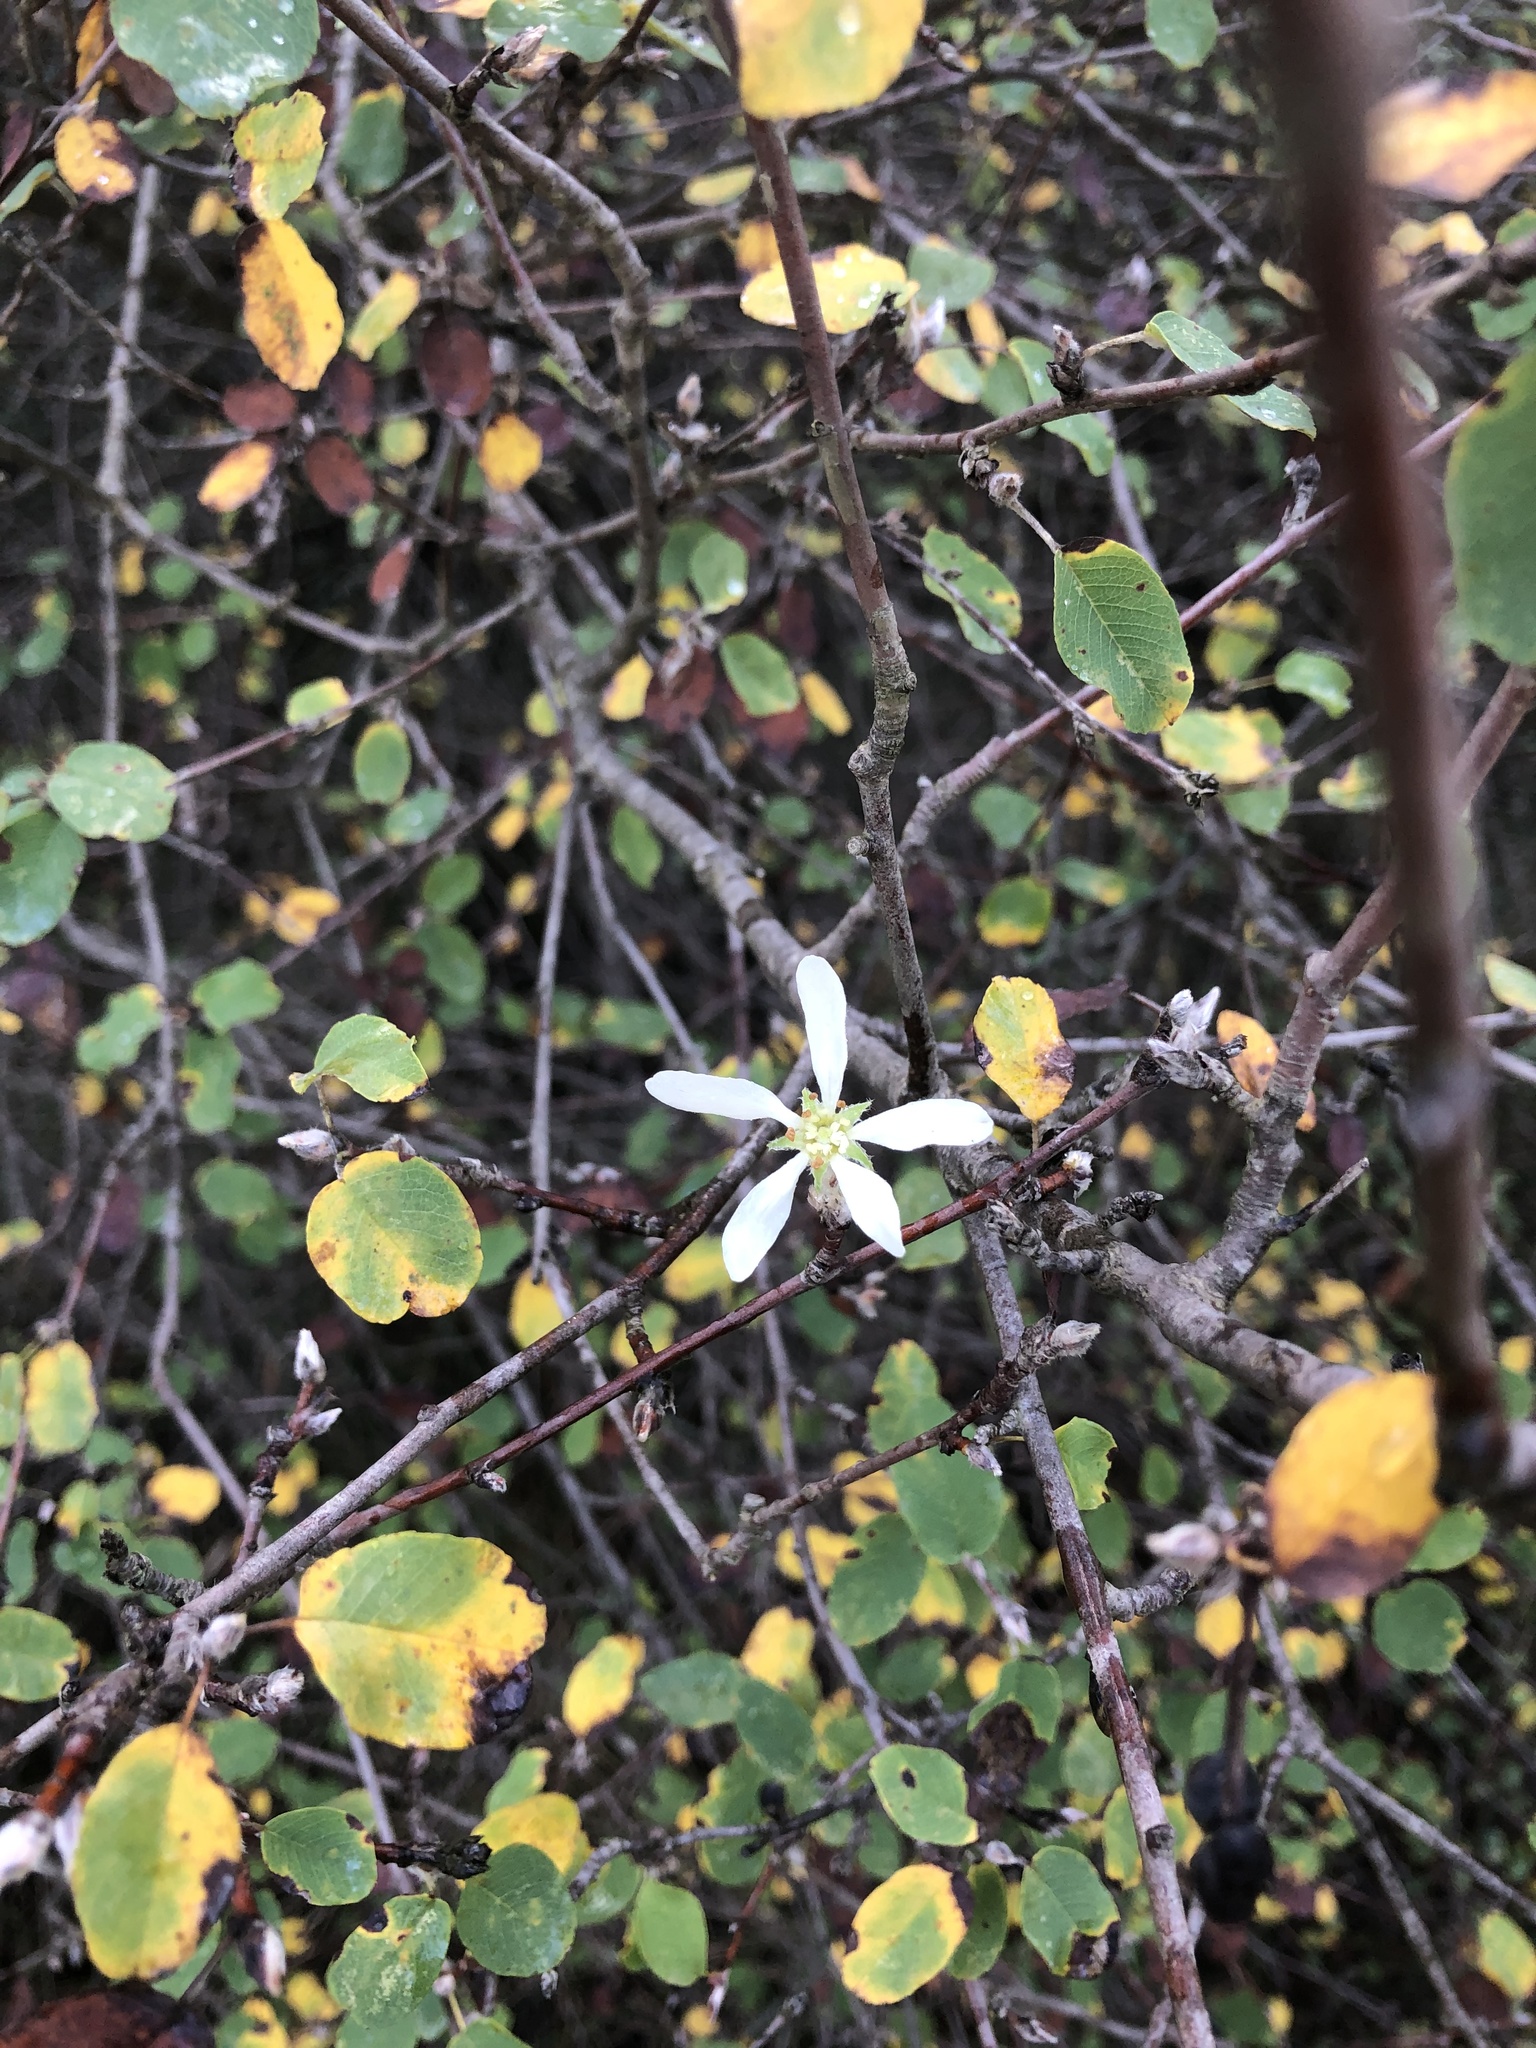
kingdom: Plantae
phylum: Tracheophyta
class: Magnoliopsida
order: Rosales
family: Rosaceae
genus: Amelanchier
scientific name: Amelanchier ovalis
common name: Serviceberry
